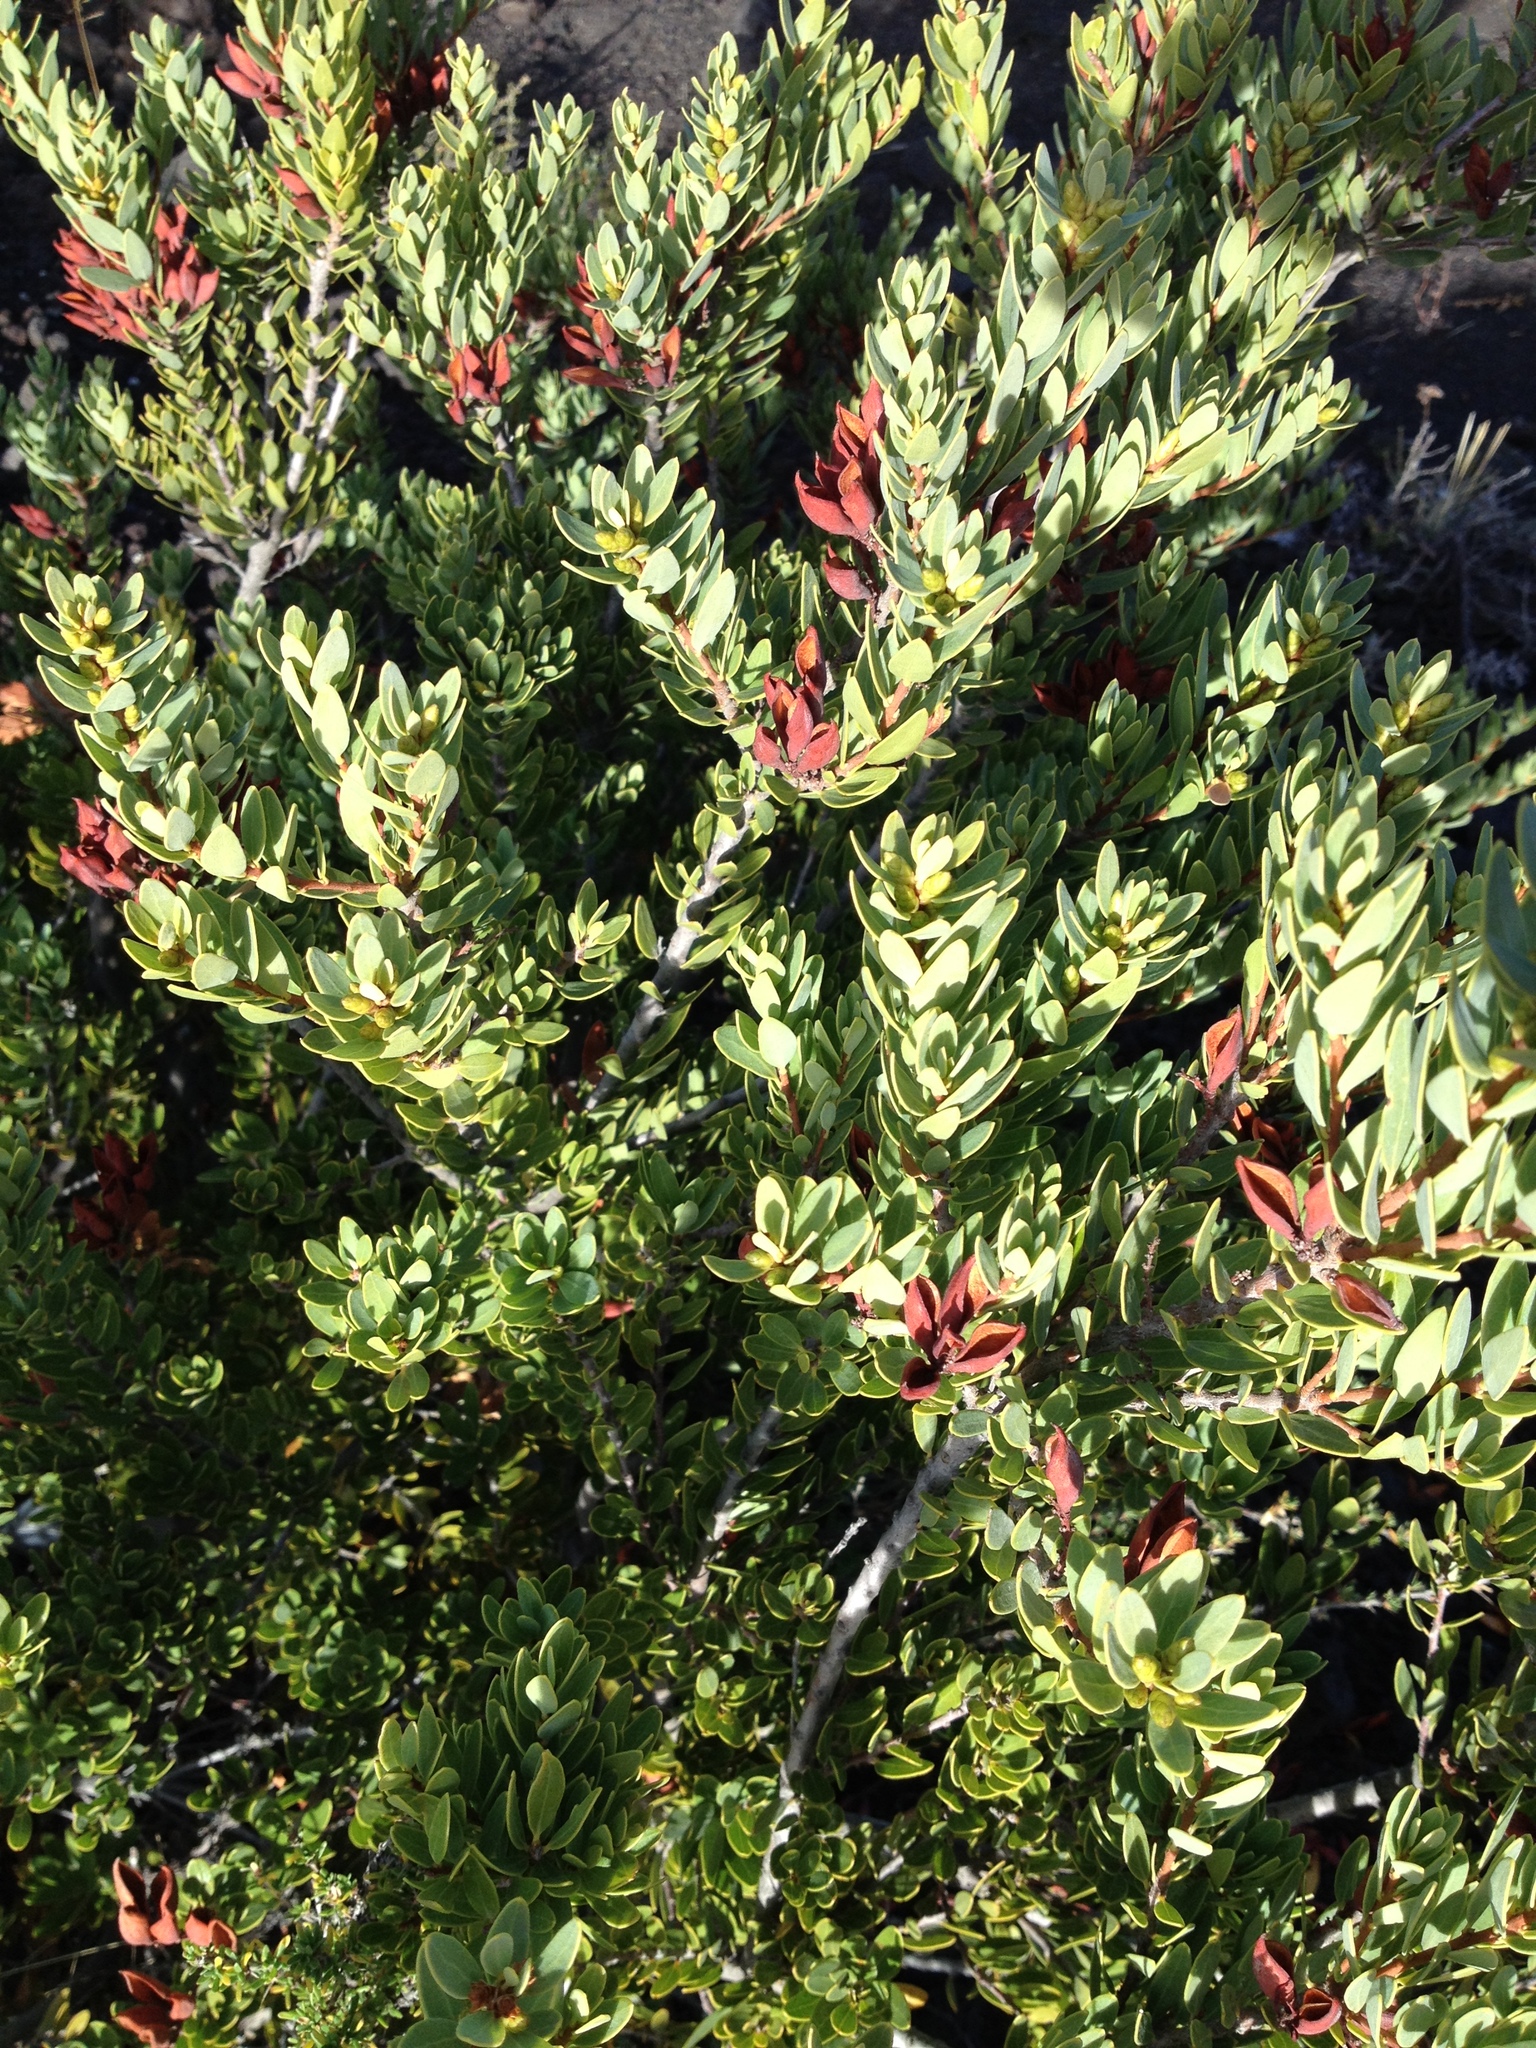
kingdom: Plantae
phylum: Tracheophyta
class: Magnoliopsida
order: Proteales
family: Proteaceae
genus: Orites
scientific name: Orites myrtoideus
